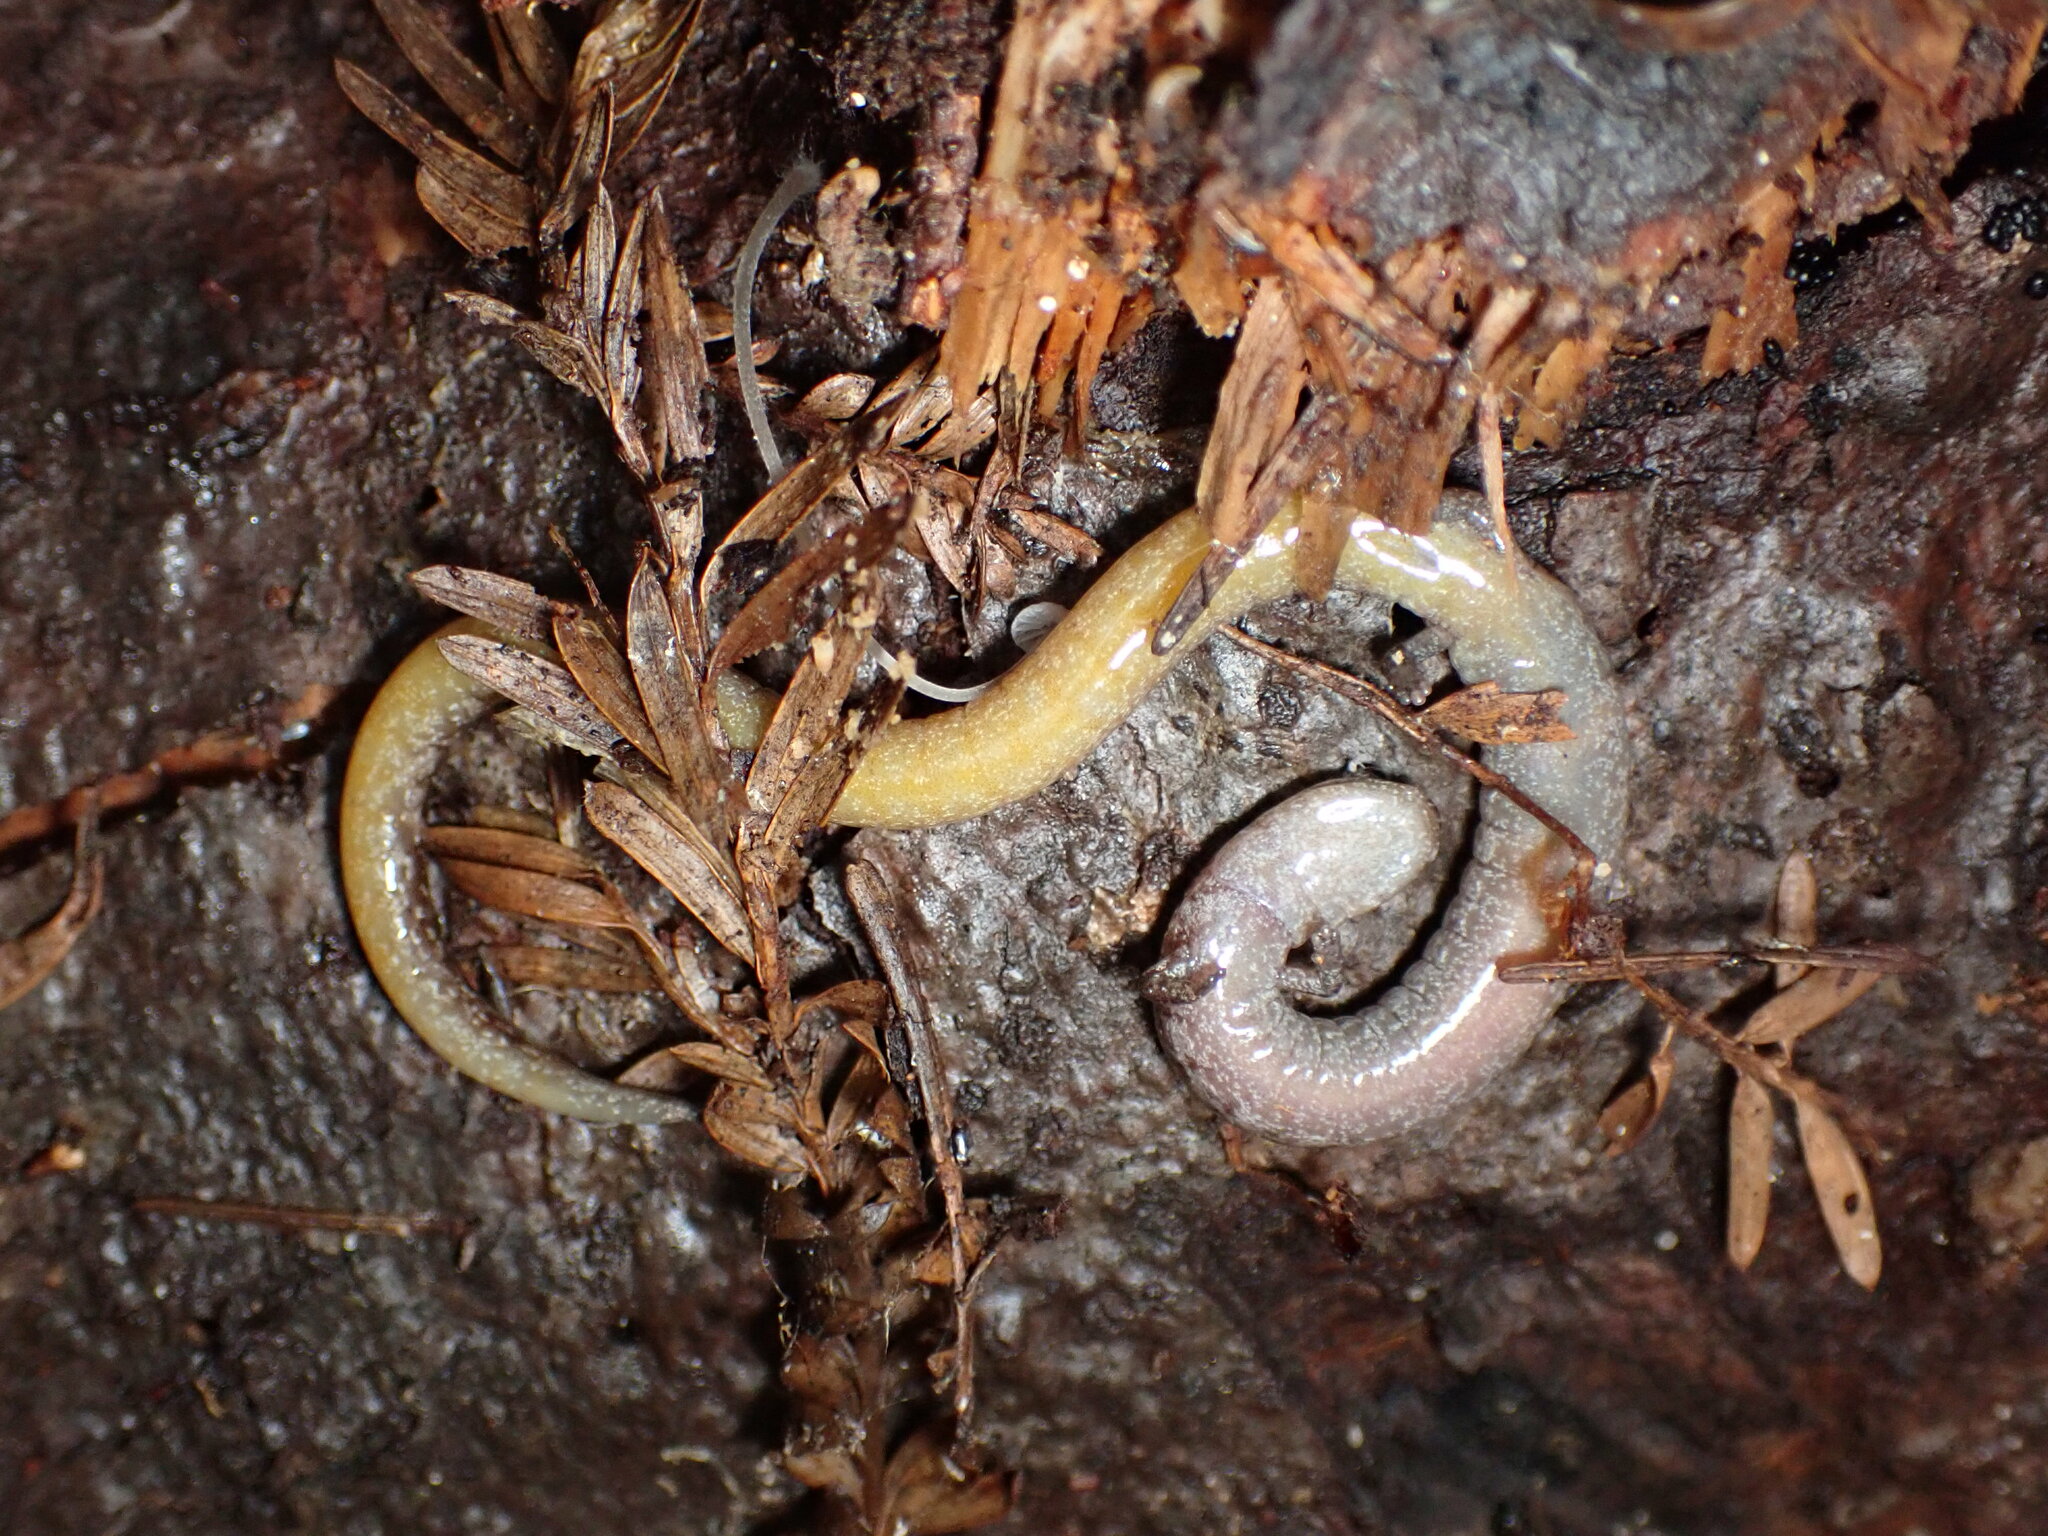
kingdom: Animalia
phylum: Chordata
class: Amphibia
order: Caudata
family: Plethodontidae
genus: Batrachoseps
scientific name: Batrachoseps attenuatus
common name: California slender salamander
